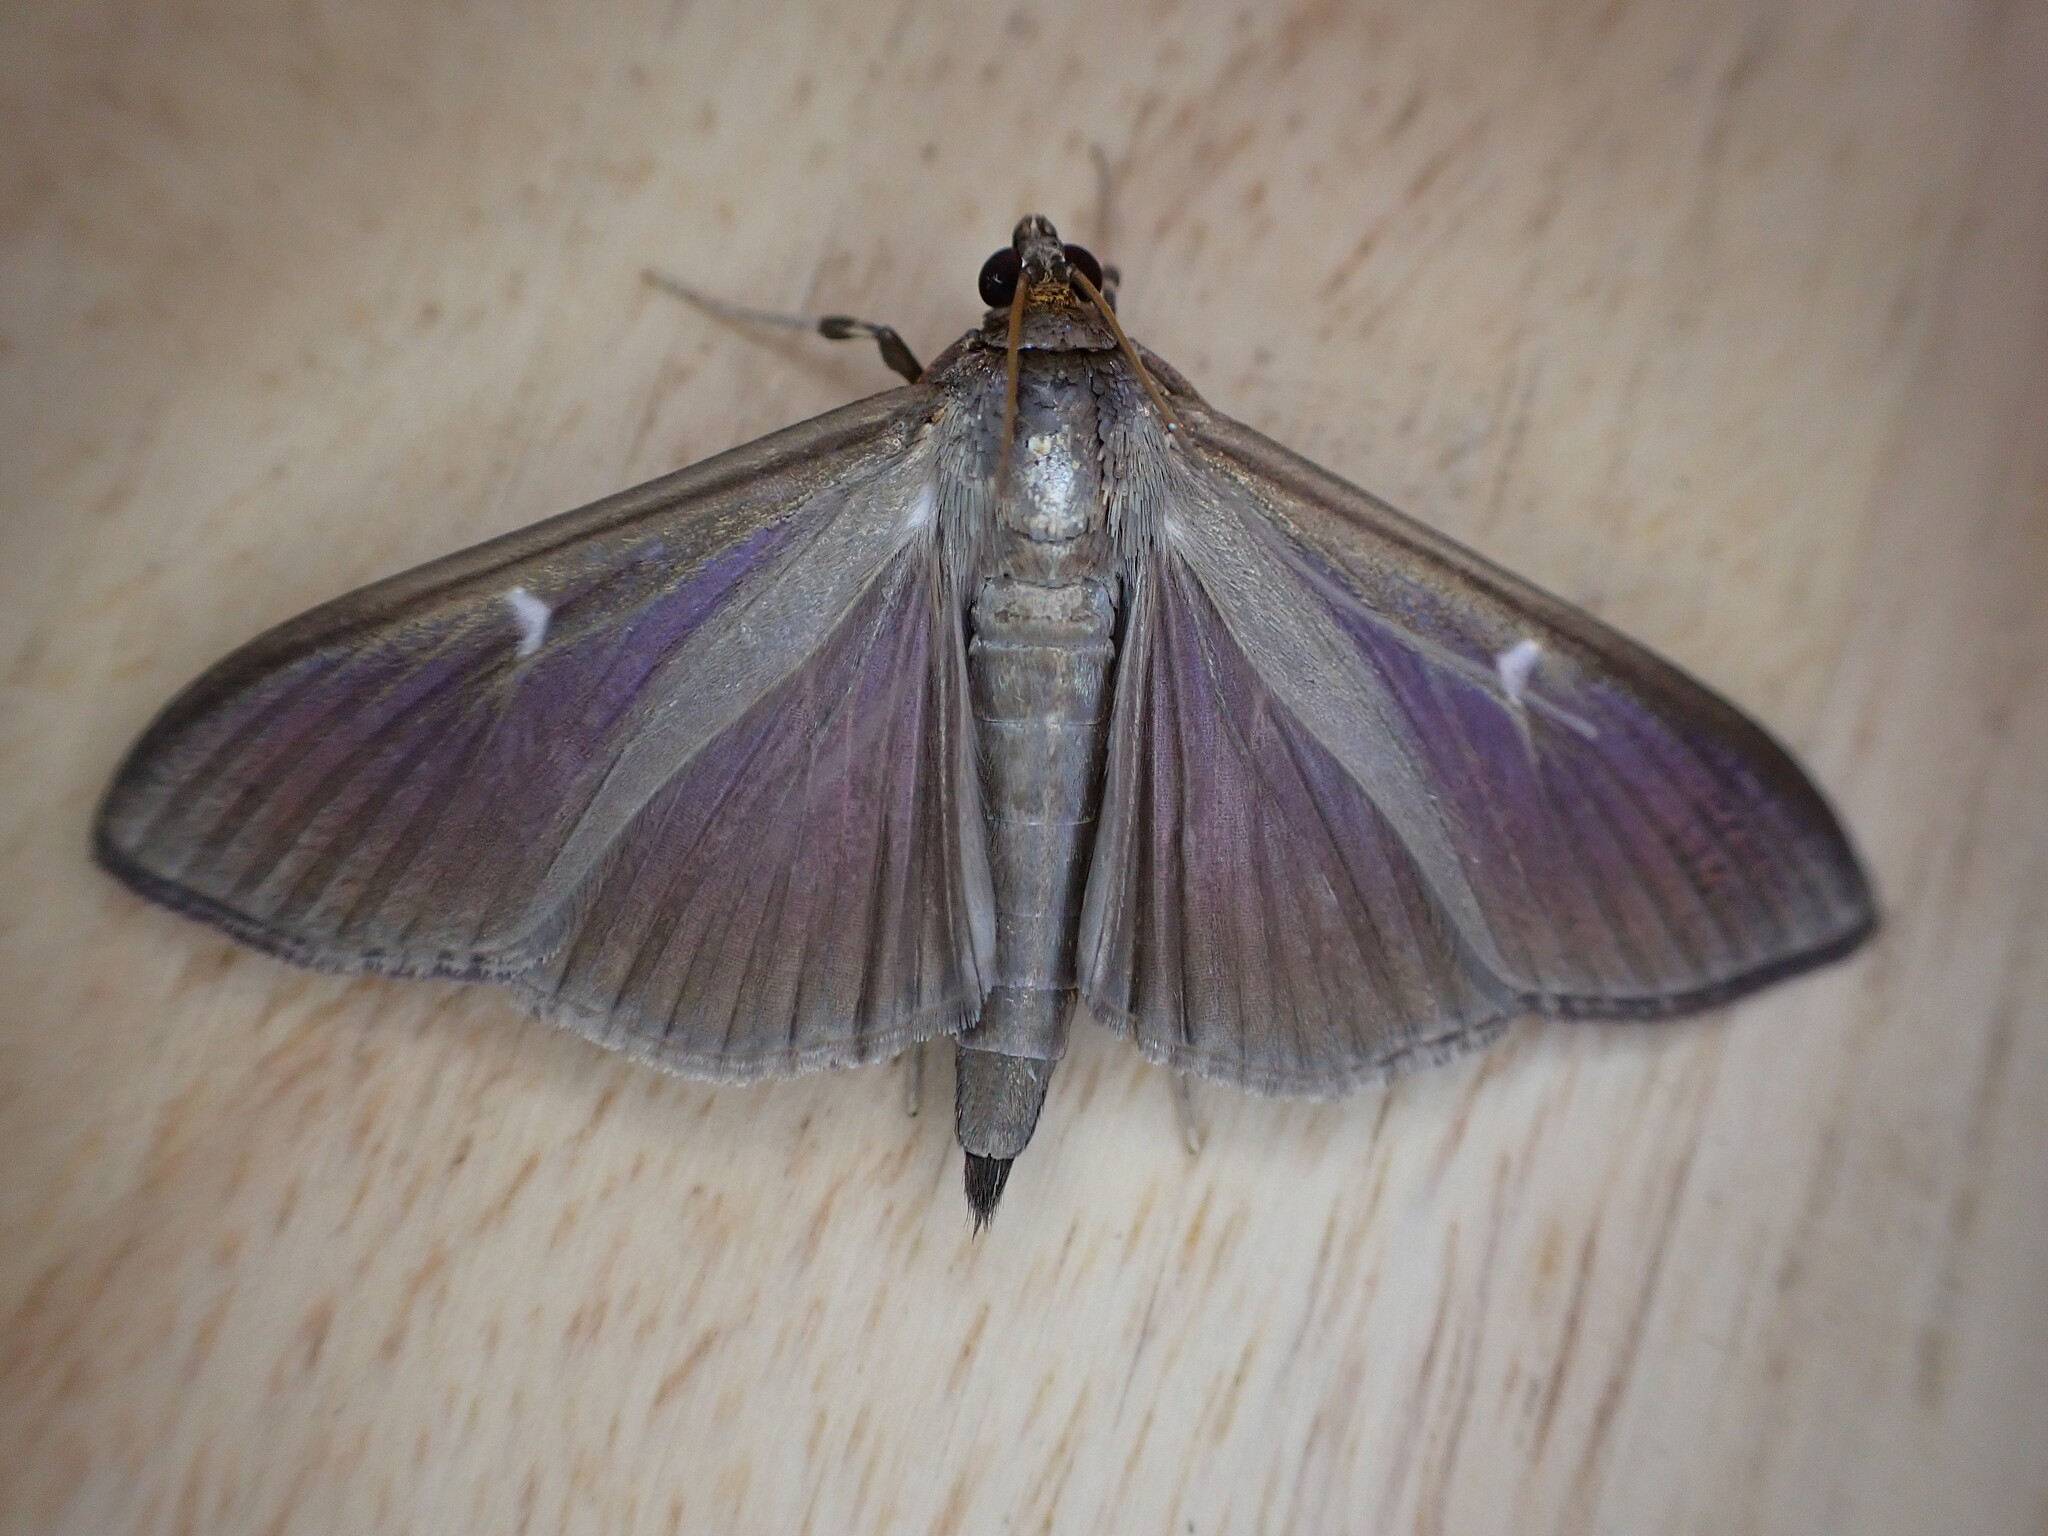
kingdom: Animalia
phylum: Arthropoda
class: Insecta
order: Lepidoptera
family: Crambidae
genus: Cydalima
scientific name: Cydalima perspectalis
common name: Box tree moth
